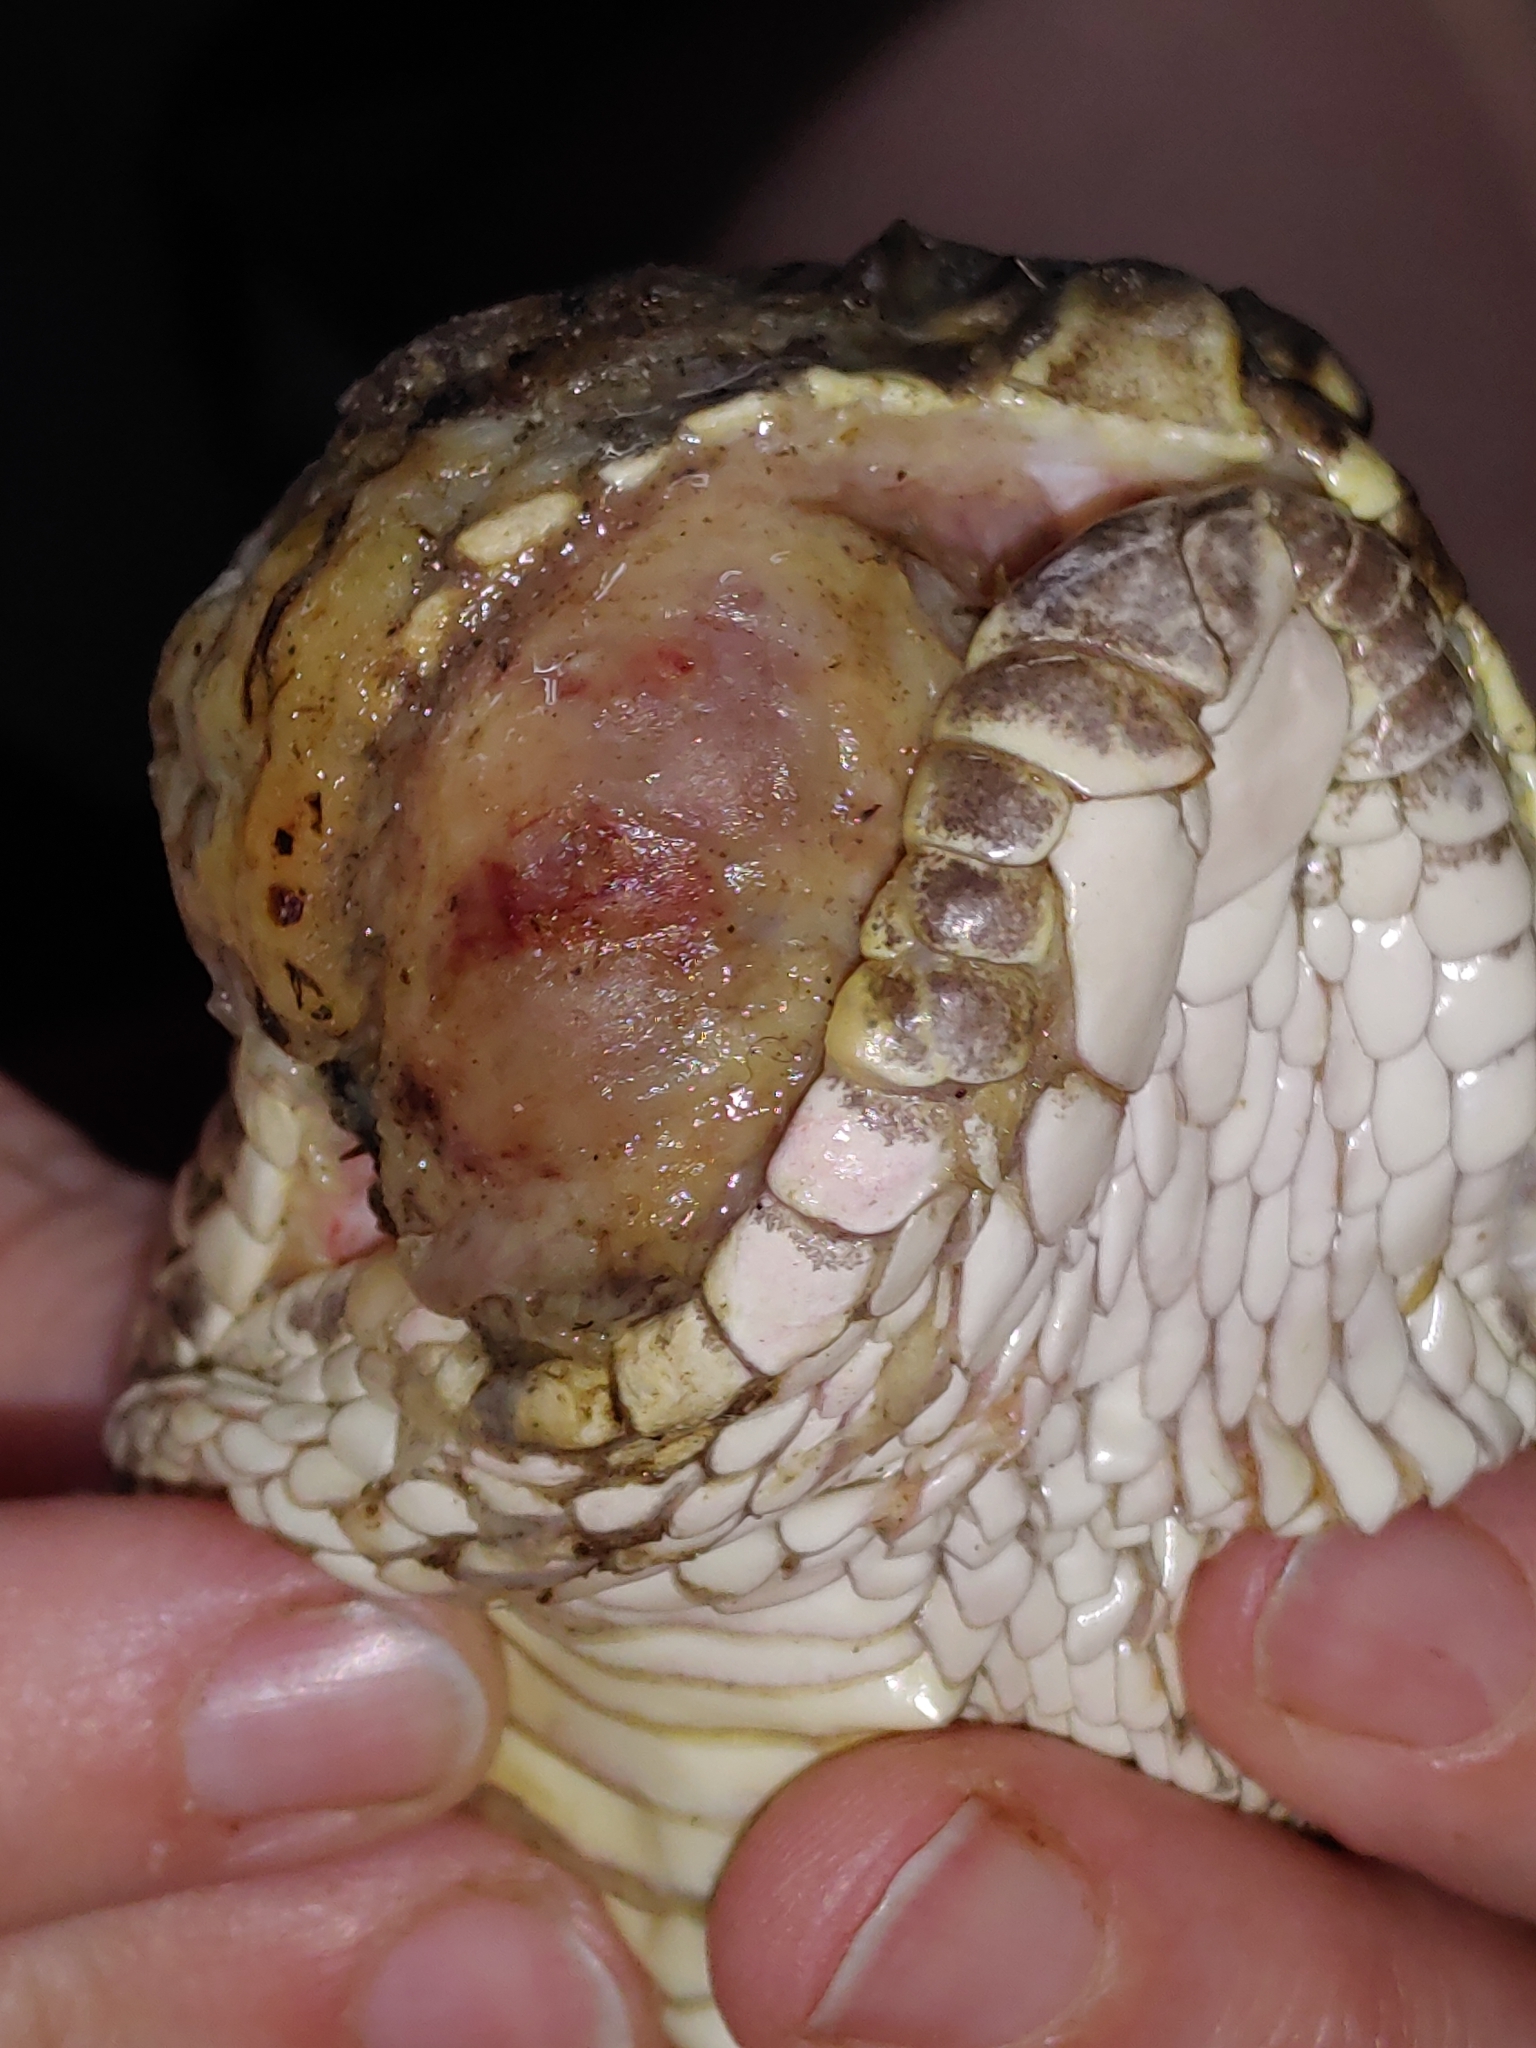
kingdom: Fungi
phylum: Ascomycota
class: Eurotiomycetes
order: Onygenales
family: Onygenaceae
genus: Ophidiomyces
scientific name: Ophidiomyces ophidiicola
